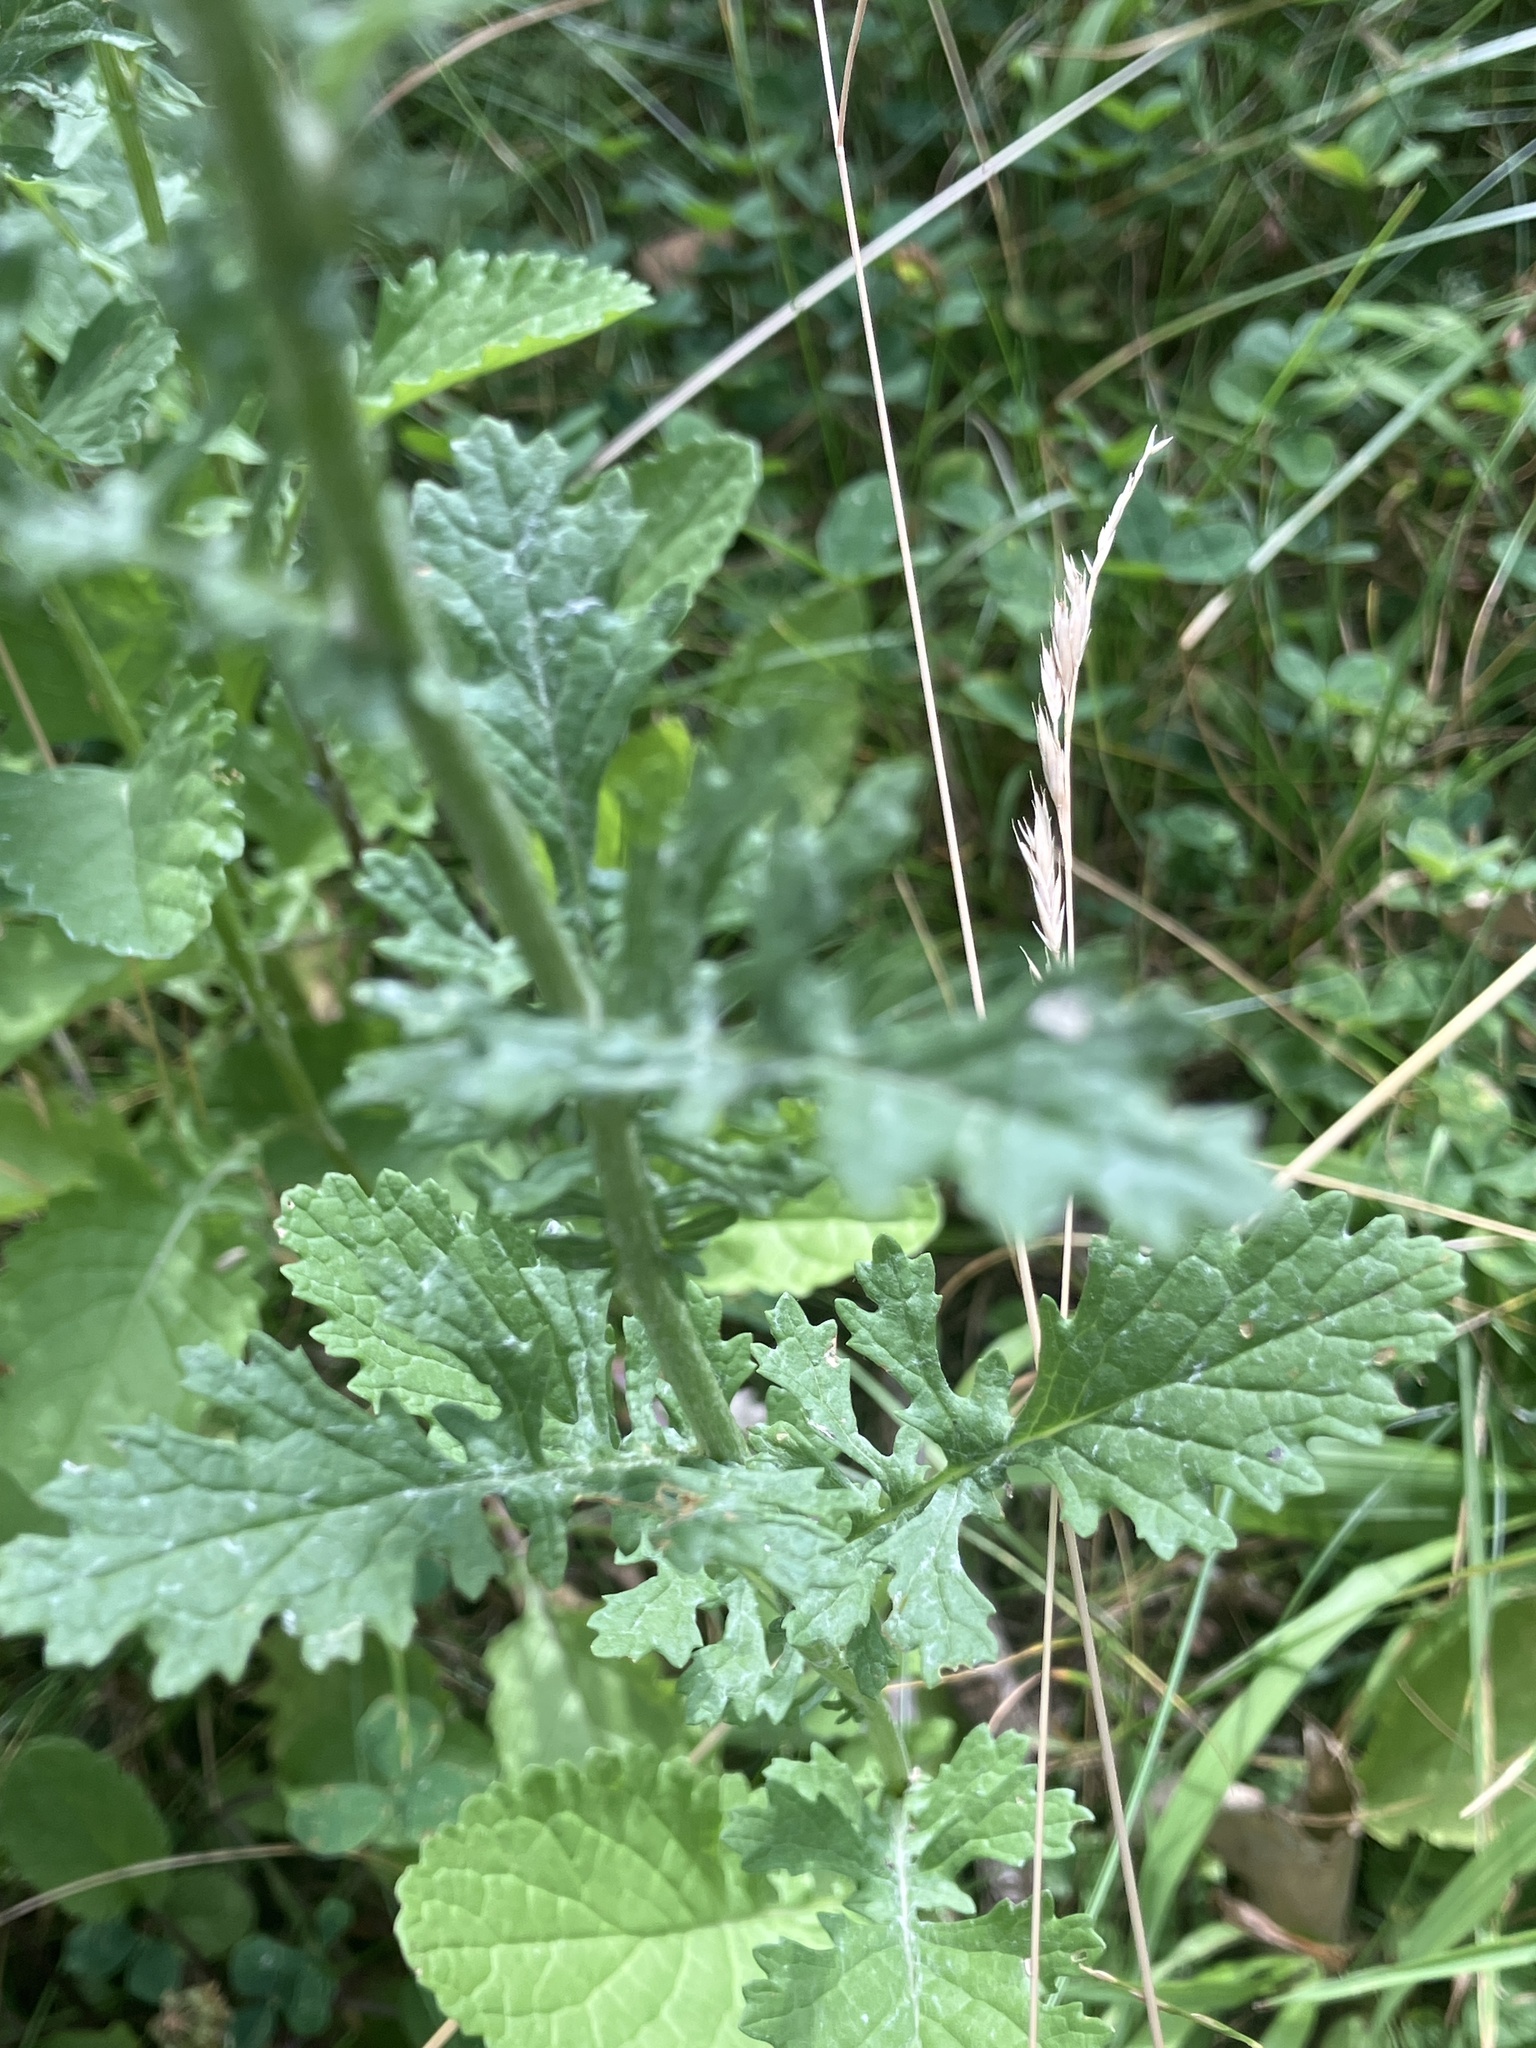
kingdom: Plantae
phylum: Tracheophyta
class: Magnoliopsida
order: Asterales
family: Asteraceae
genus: Jacobaea
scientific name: Jacobaea vulgaris
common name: Stinking willie
